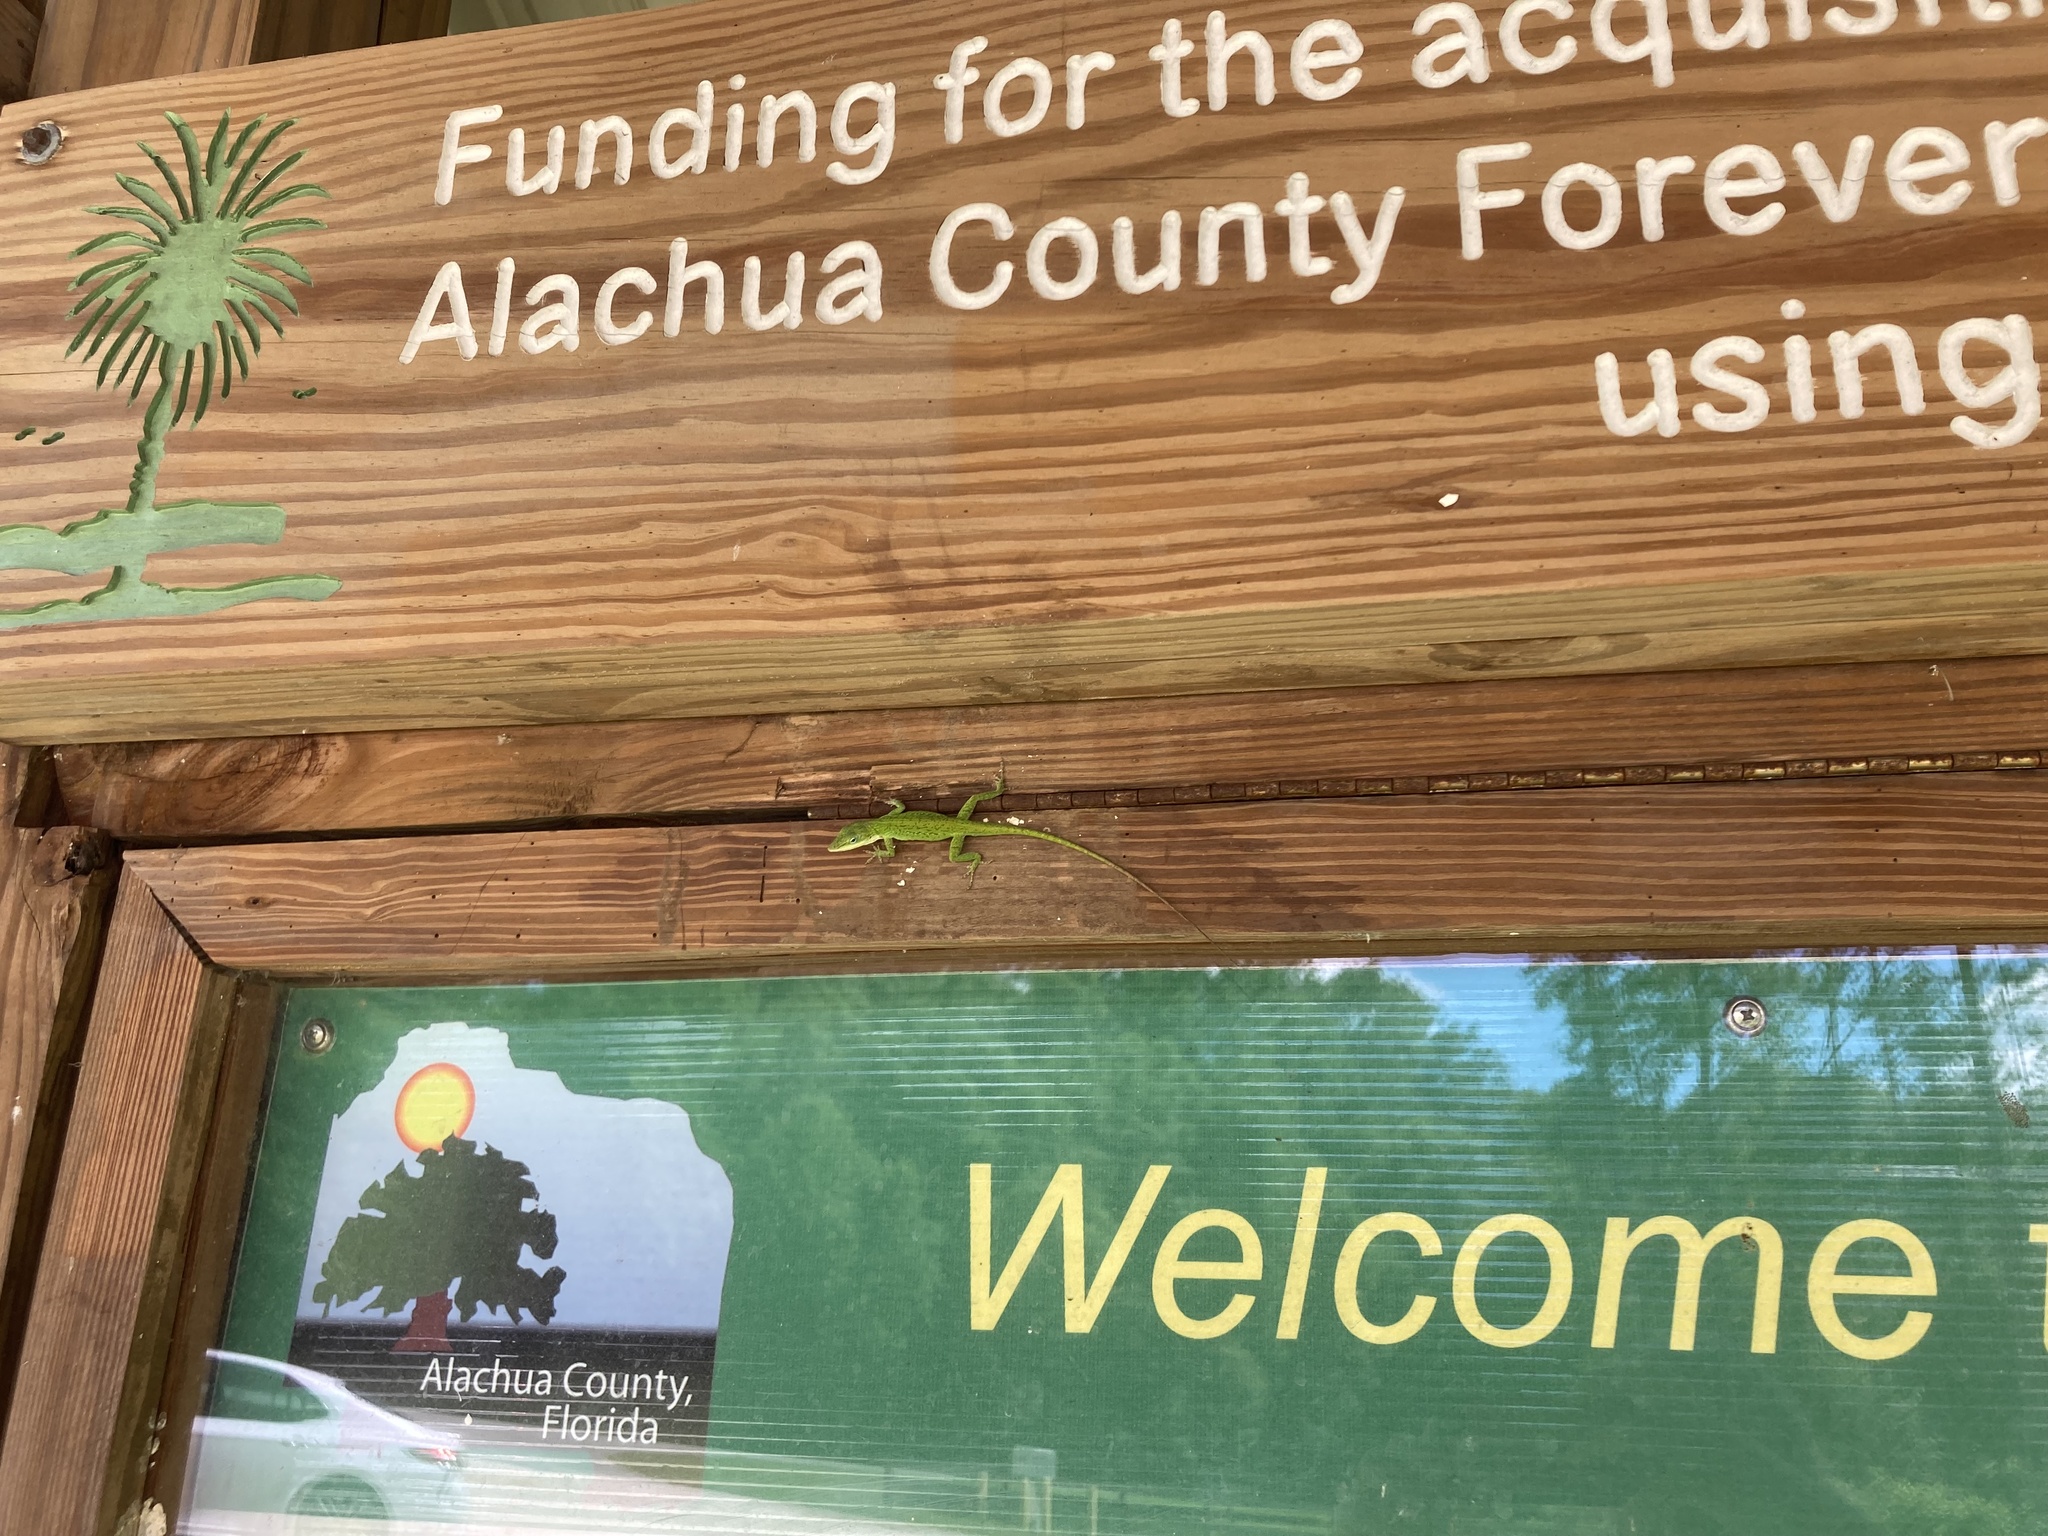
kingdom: Animalia
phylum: Chordata
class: Squamata
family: Dactyloidae
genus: Anolis
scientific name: Anolis carolinensis
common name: Green anole
